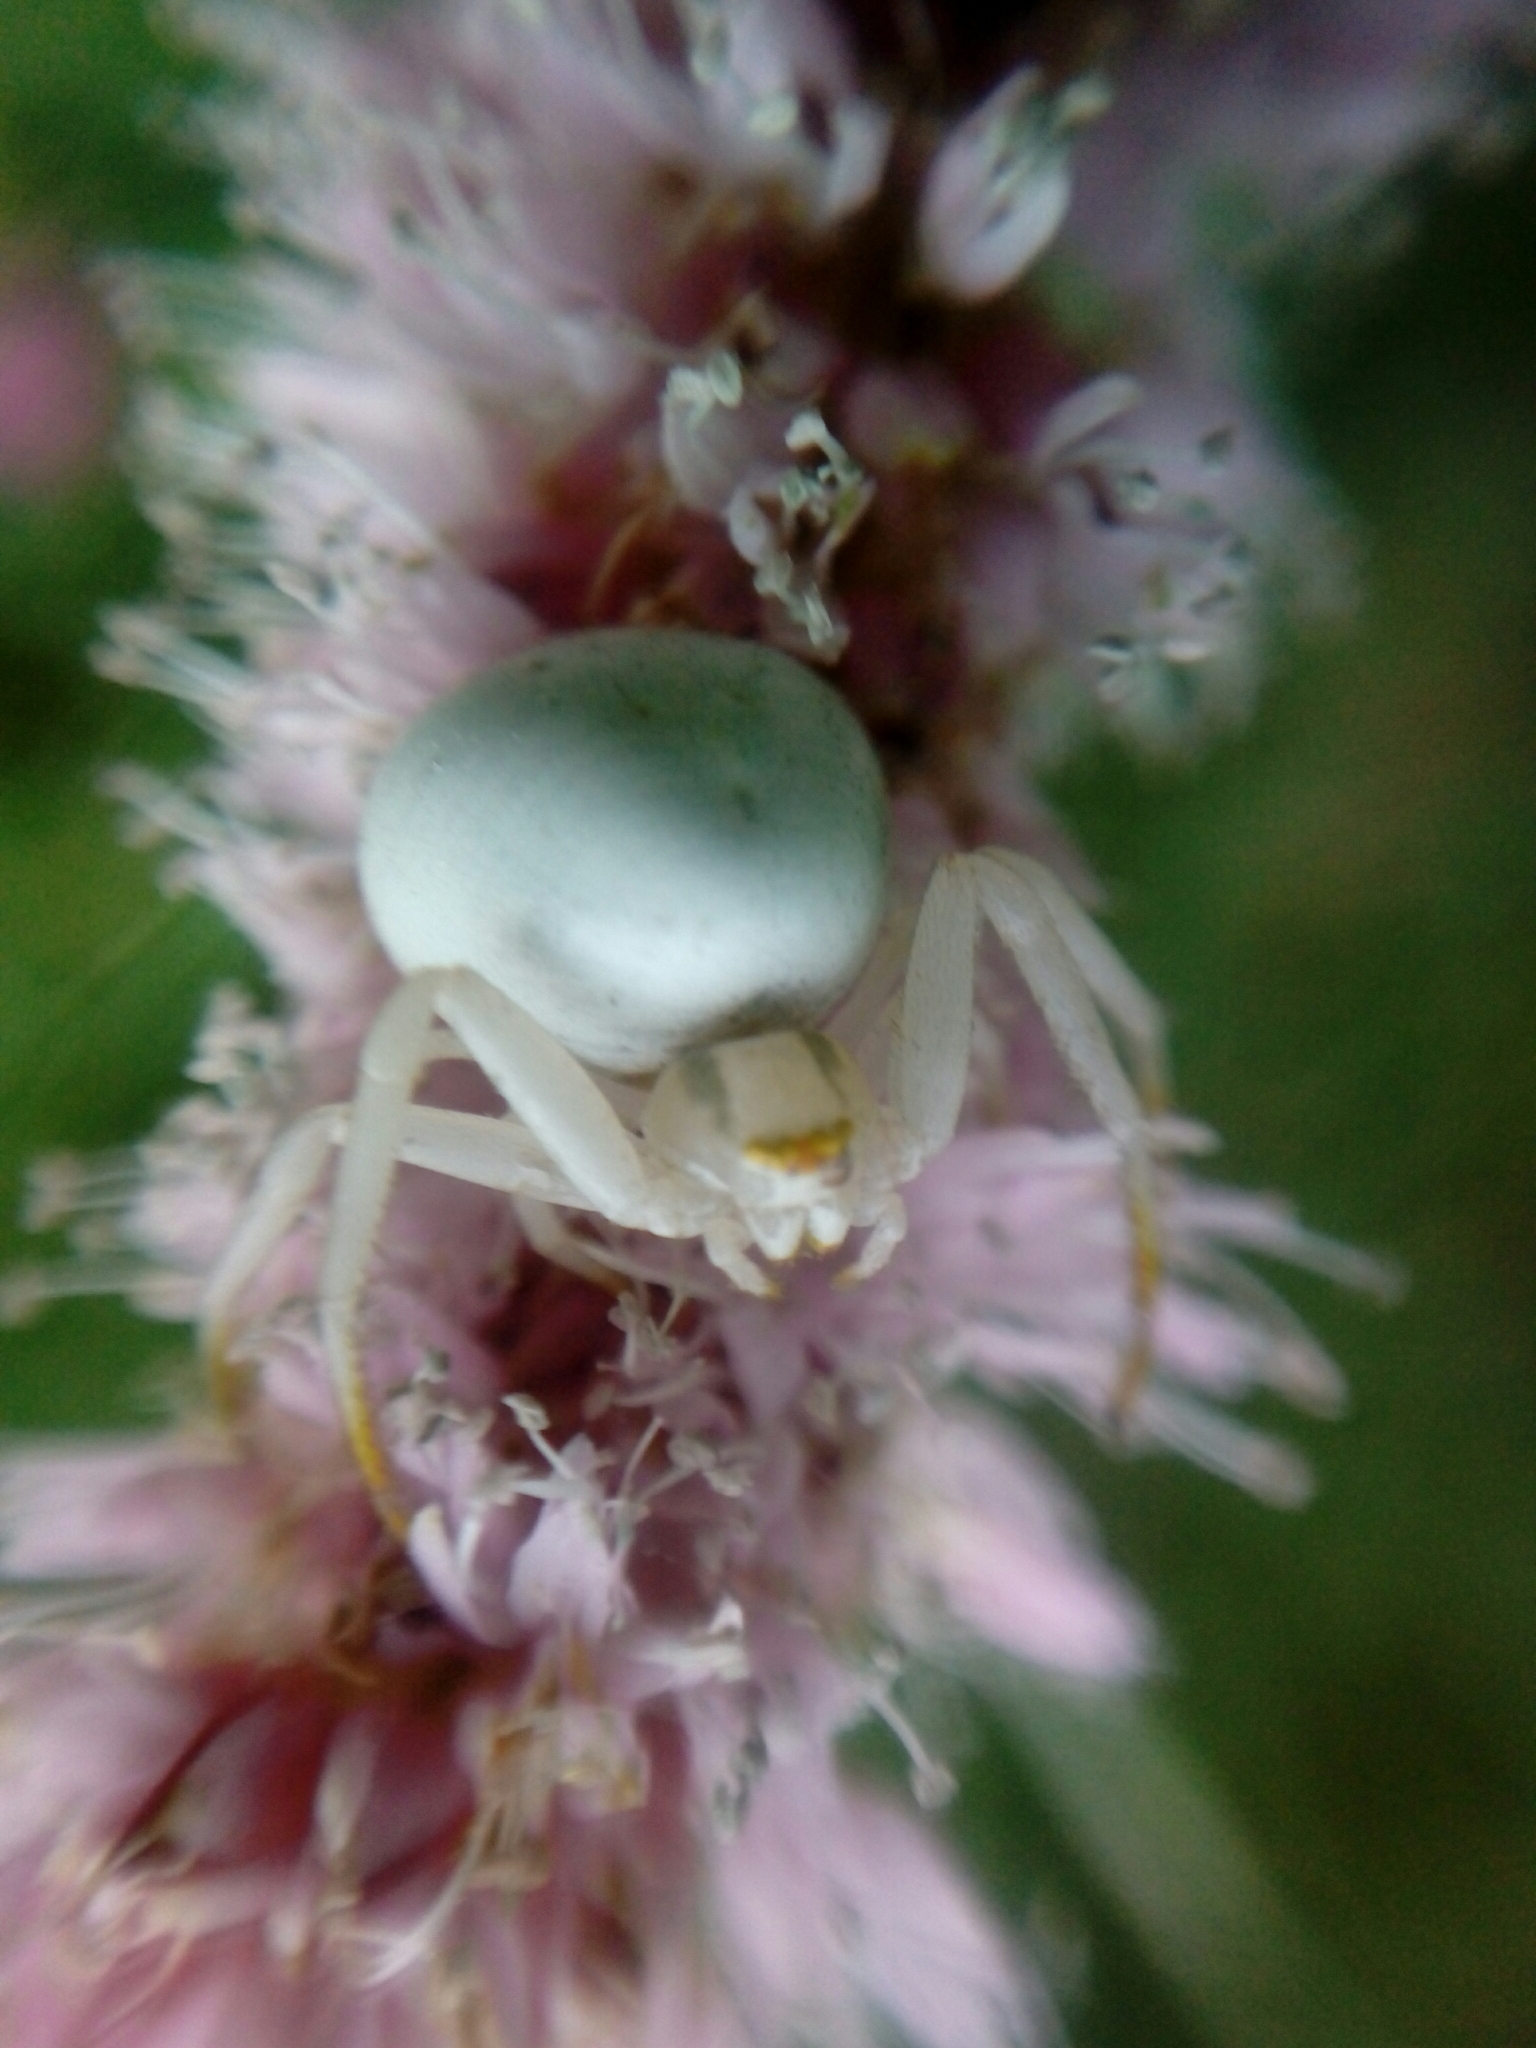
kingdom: Animalia
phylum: Arthropoda
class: Arachnida
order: Araneae
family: Thomisidae
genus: Misumena
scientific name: Misumena vatia
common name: Goldenrod crab spider
